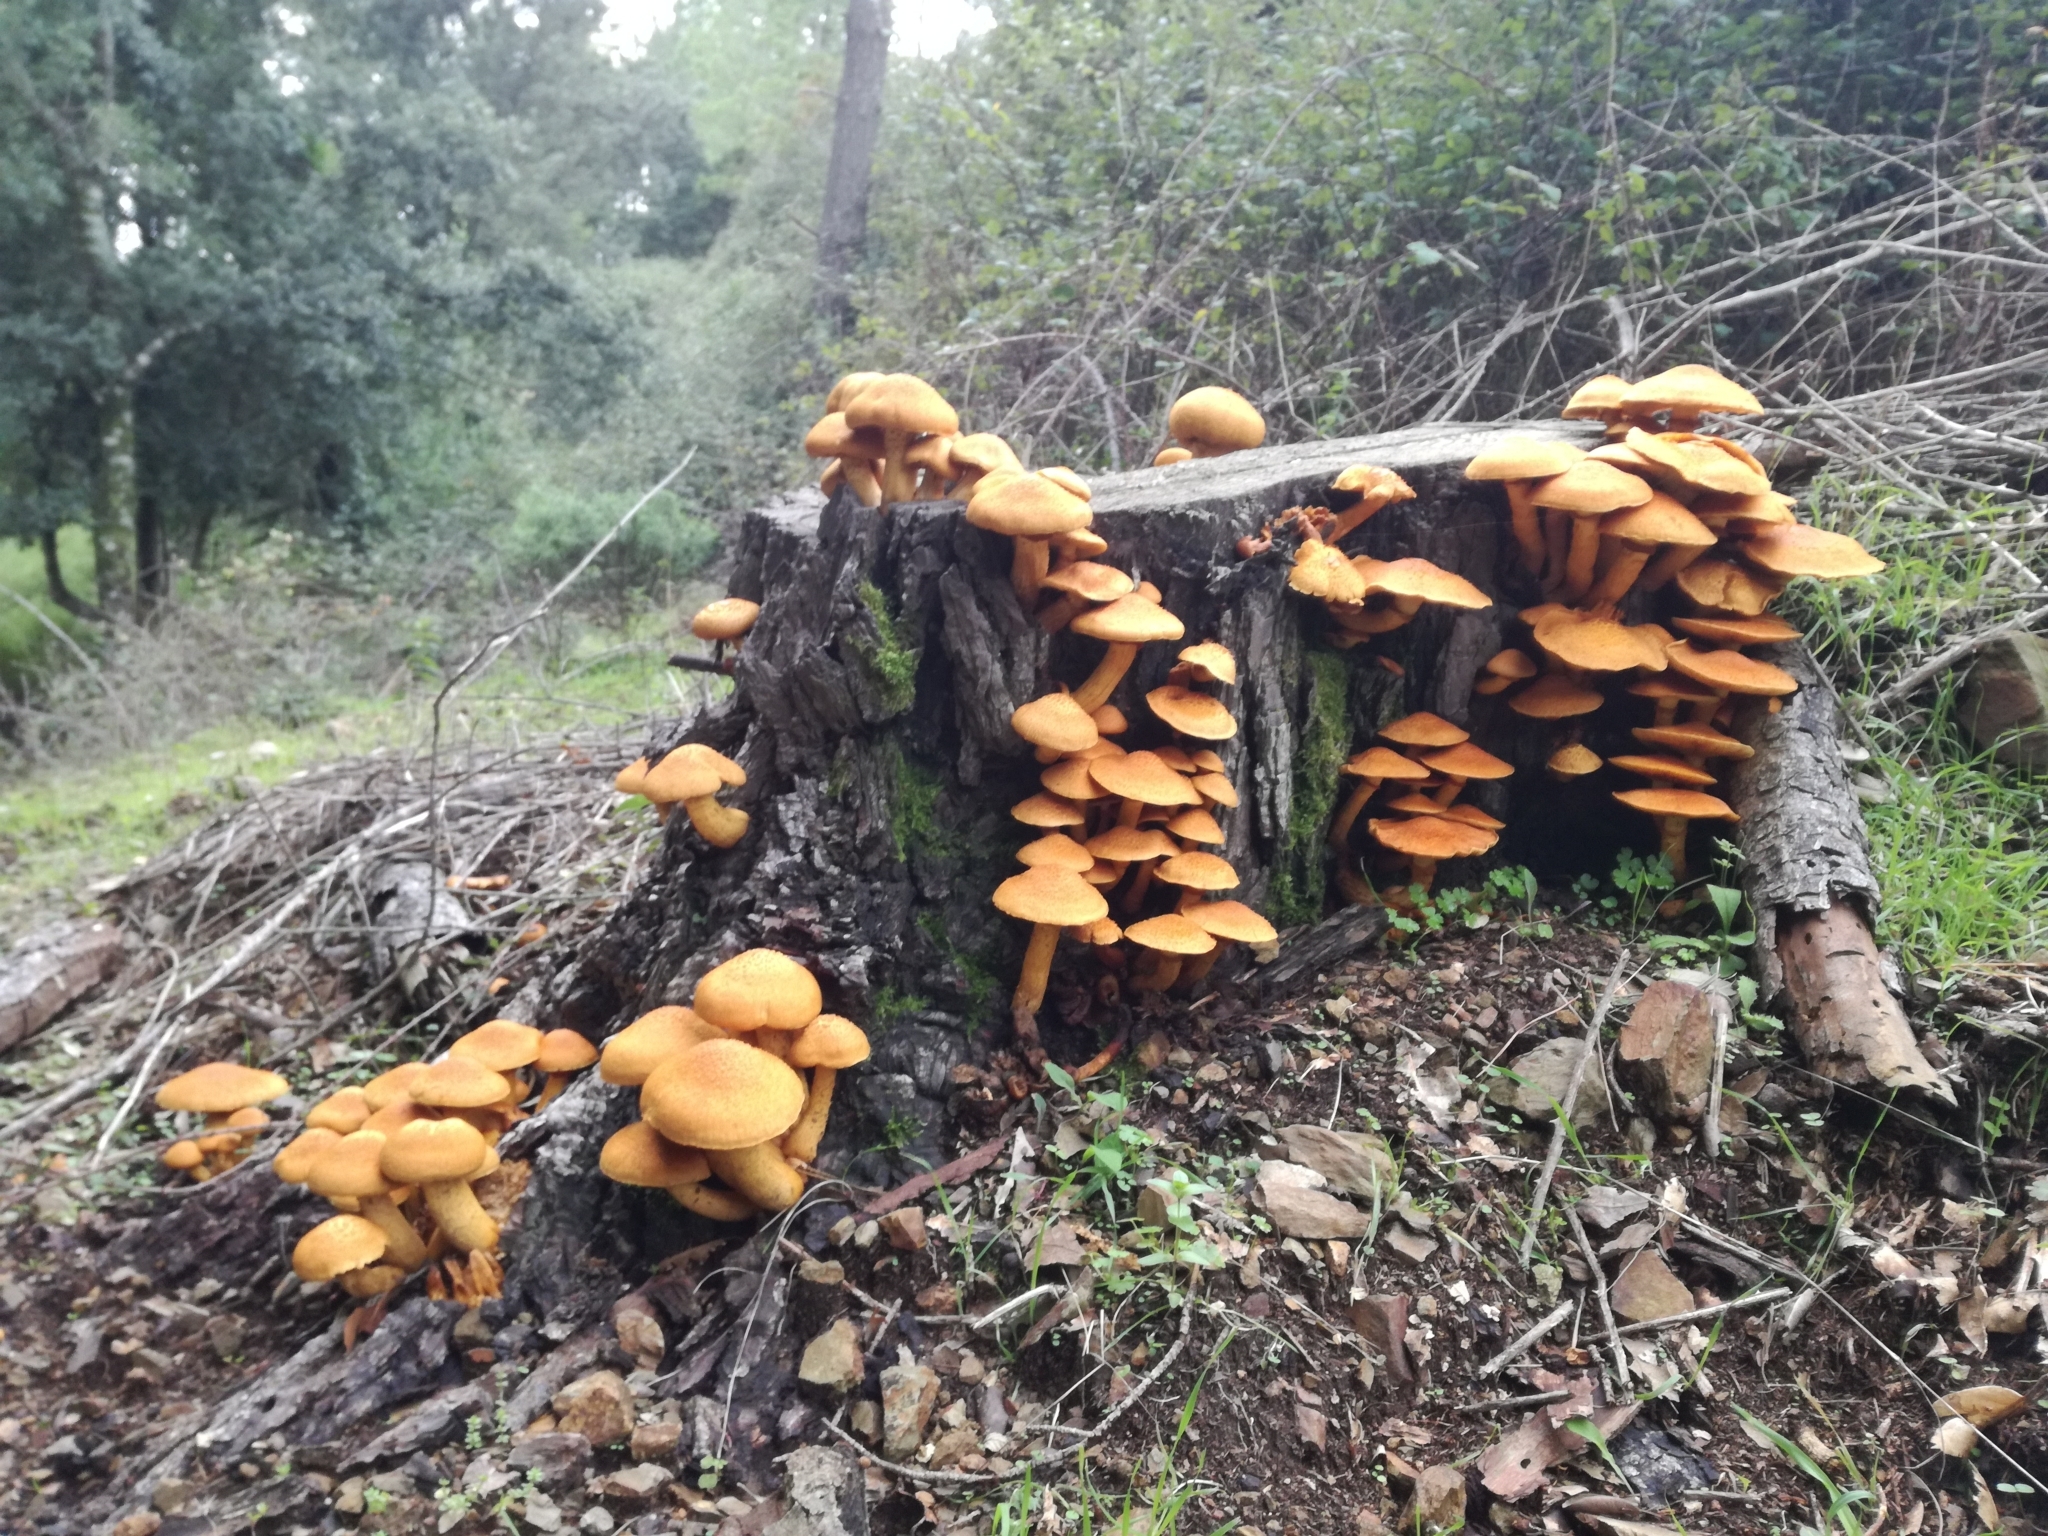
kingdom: Fungi
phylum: Basidiomycota
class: Agaricomycetes
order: Agaricales
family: Hymenogastraceae
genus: Gymnopilus
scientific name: Gymnopilus junonius
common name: Spectacular rustgill
